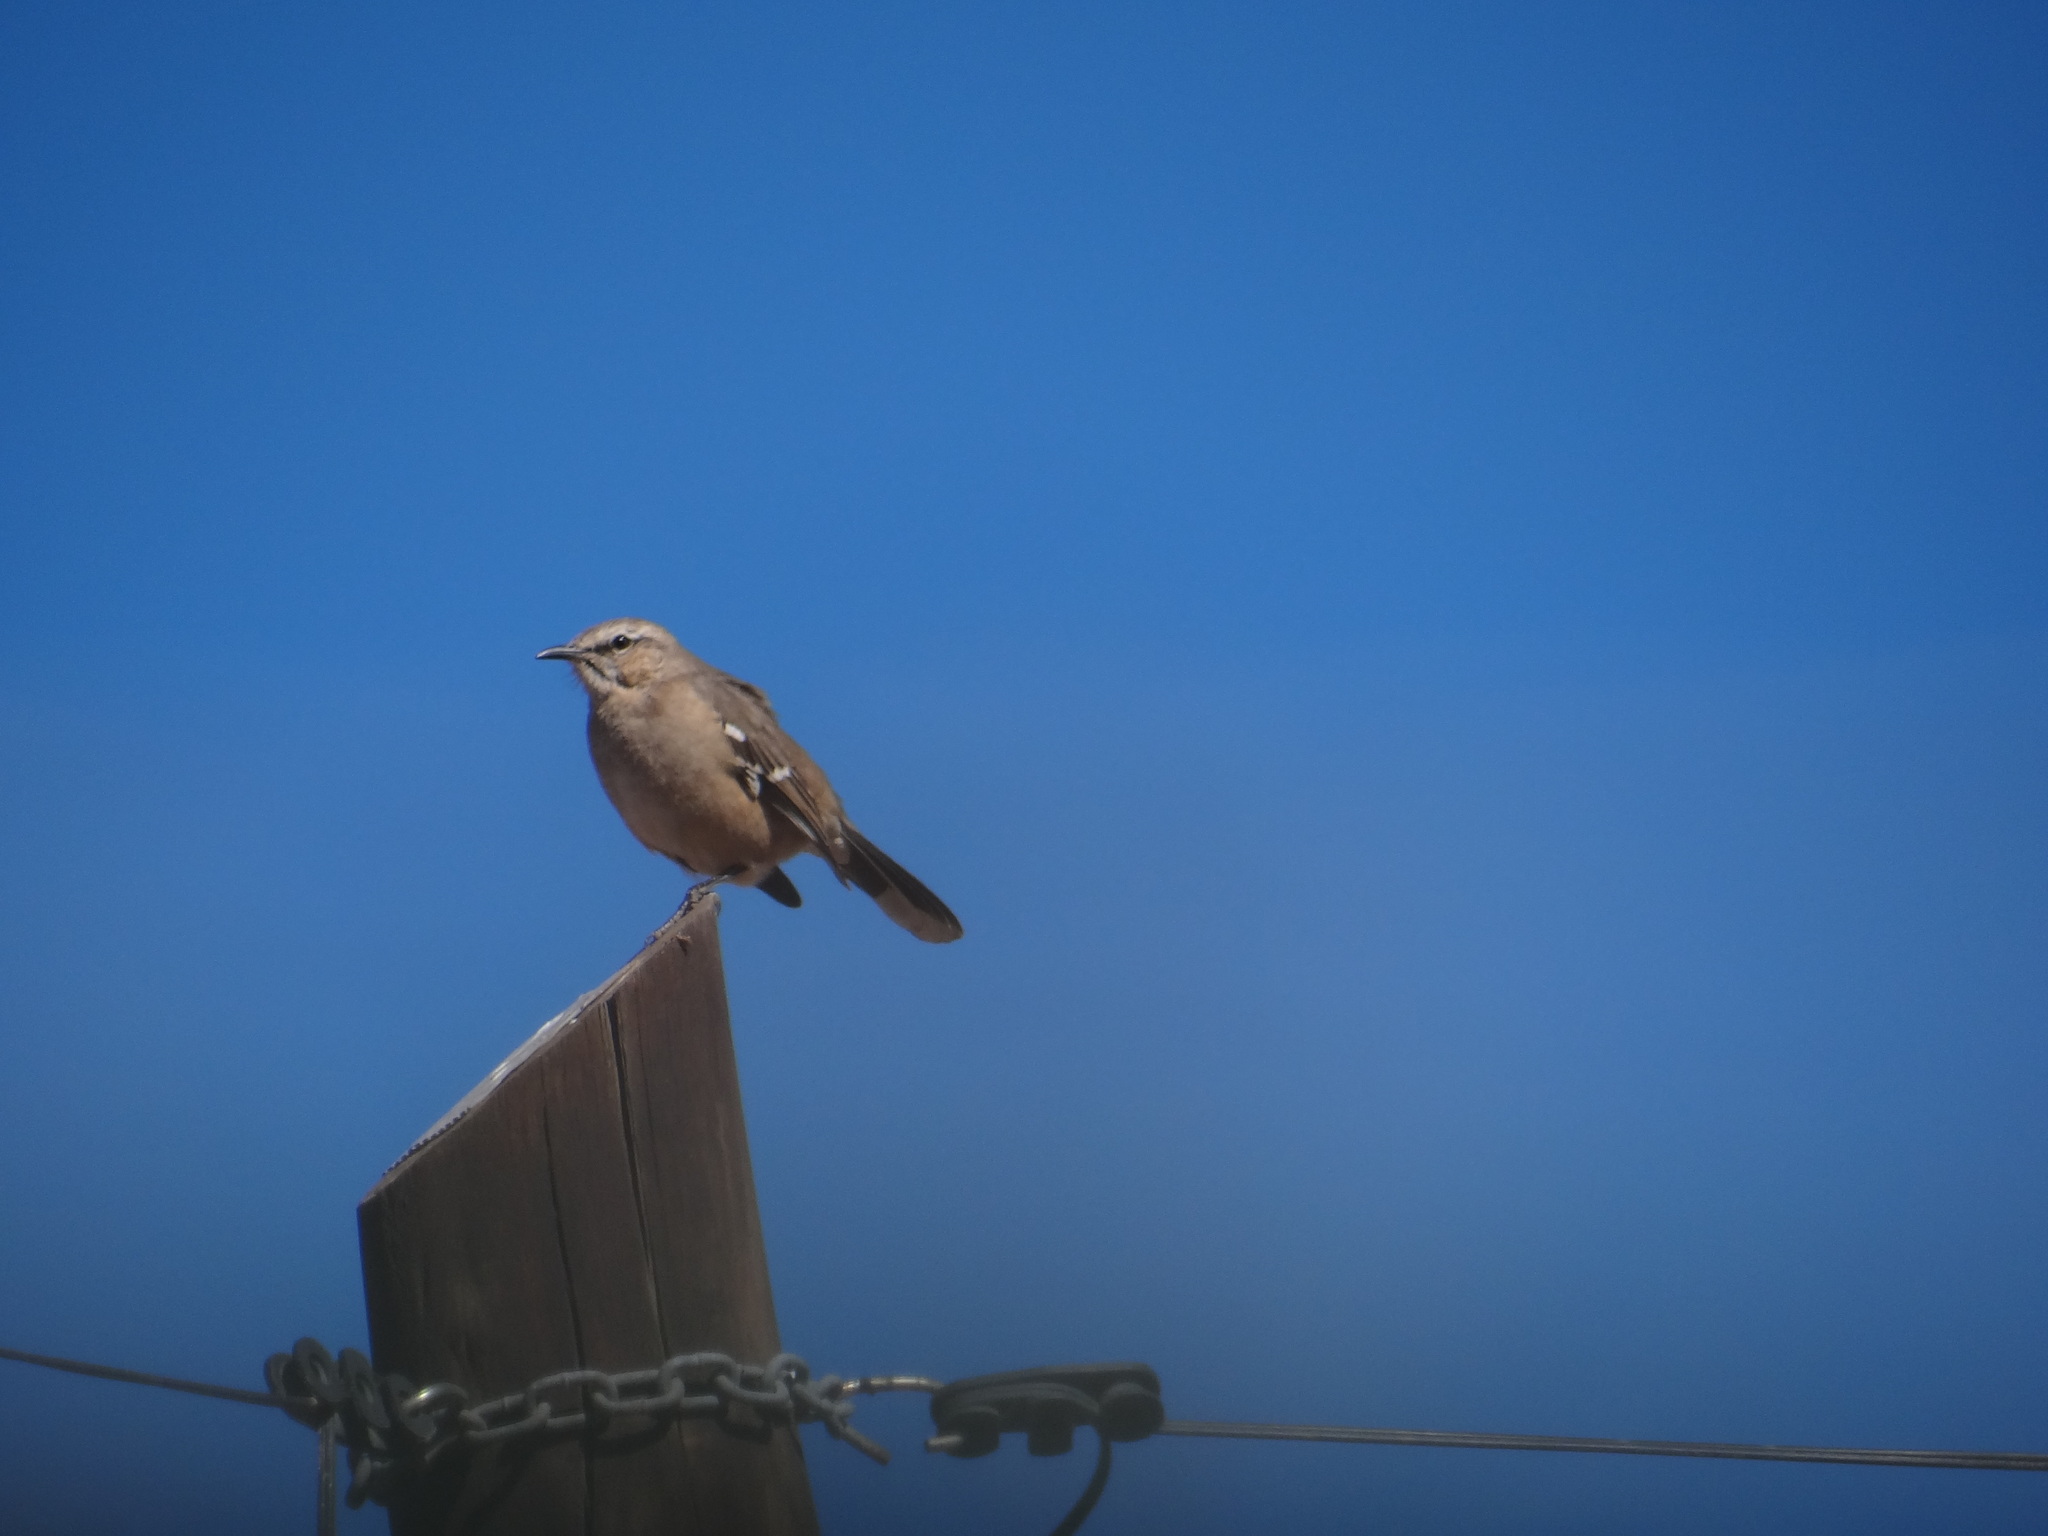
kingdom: Animalia
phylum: Chordata
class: Aves
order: Passeriformes
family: Mimidae
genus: Mimus
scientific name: Mimus patagonicus
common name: Patagonian mockingbird
